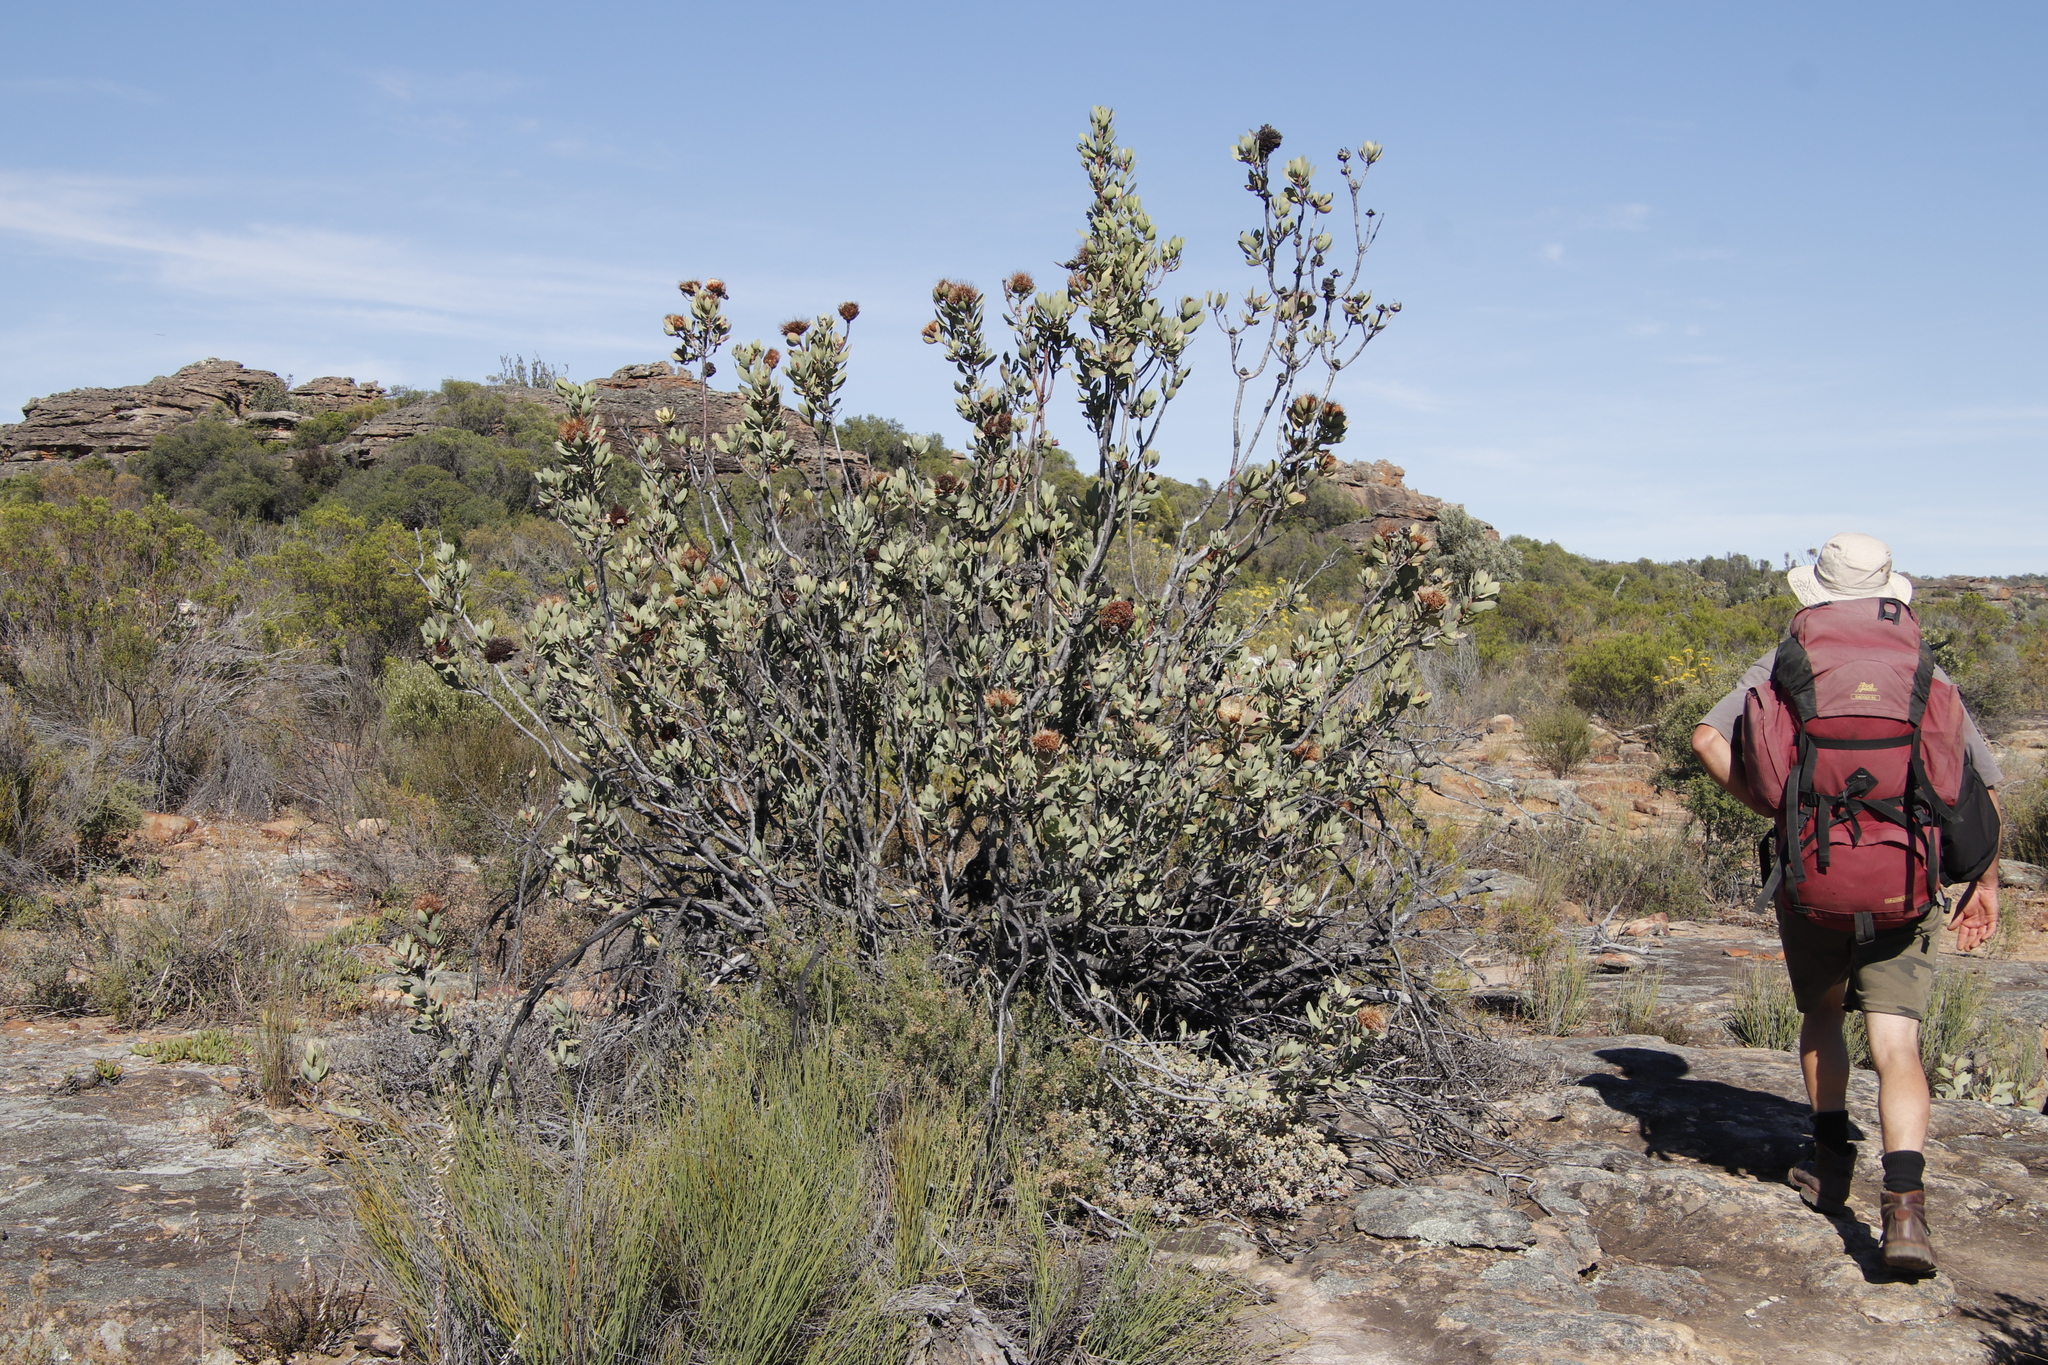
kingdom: Plantae
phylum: Tracheophyta
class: Magnoliopsida
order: Proteales
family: Proteaceae
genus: Protea
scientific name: Protea glabra
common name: Chestnut sugarbush
